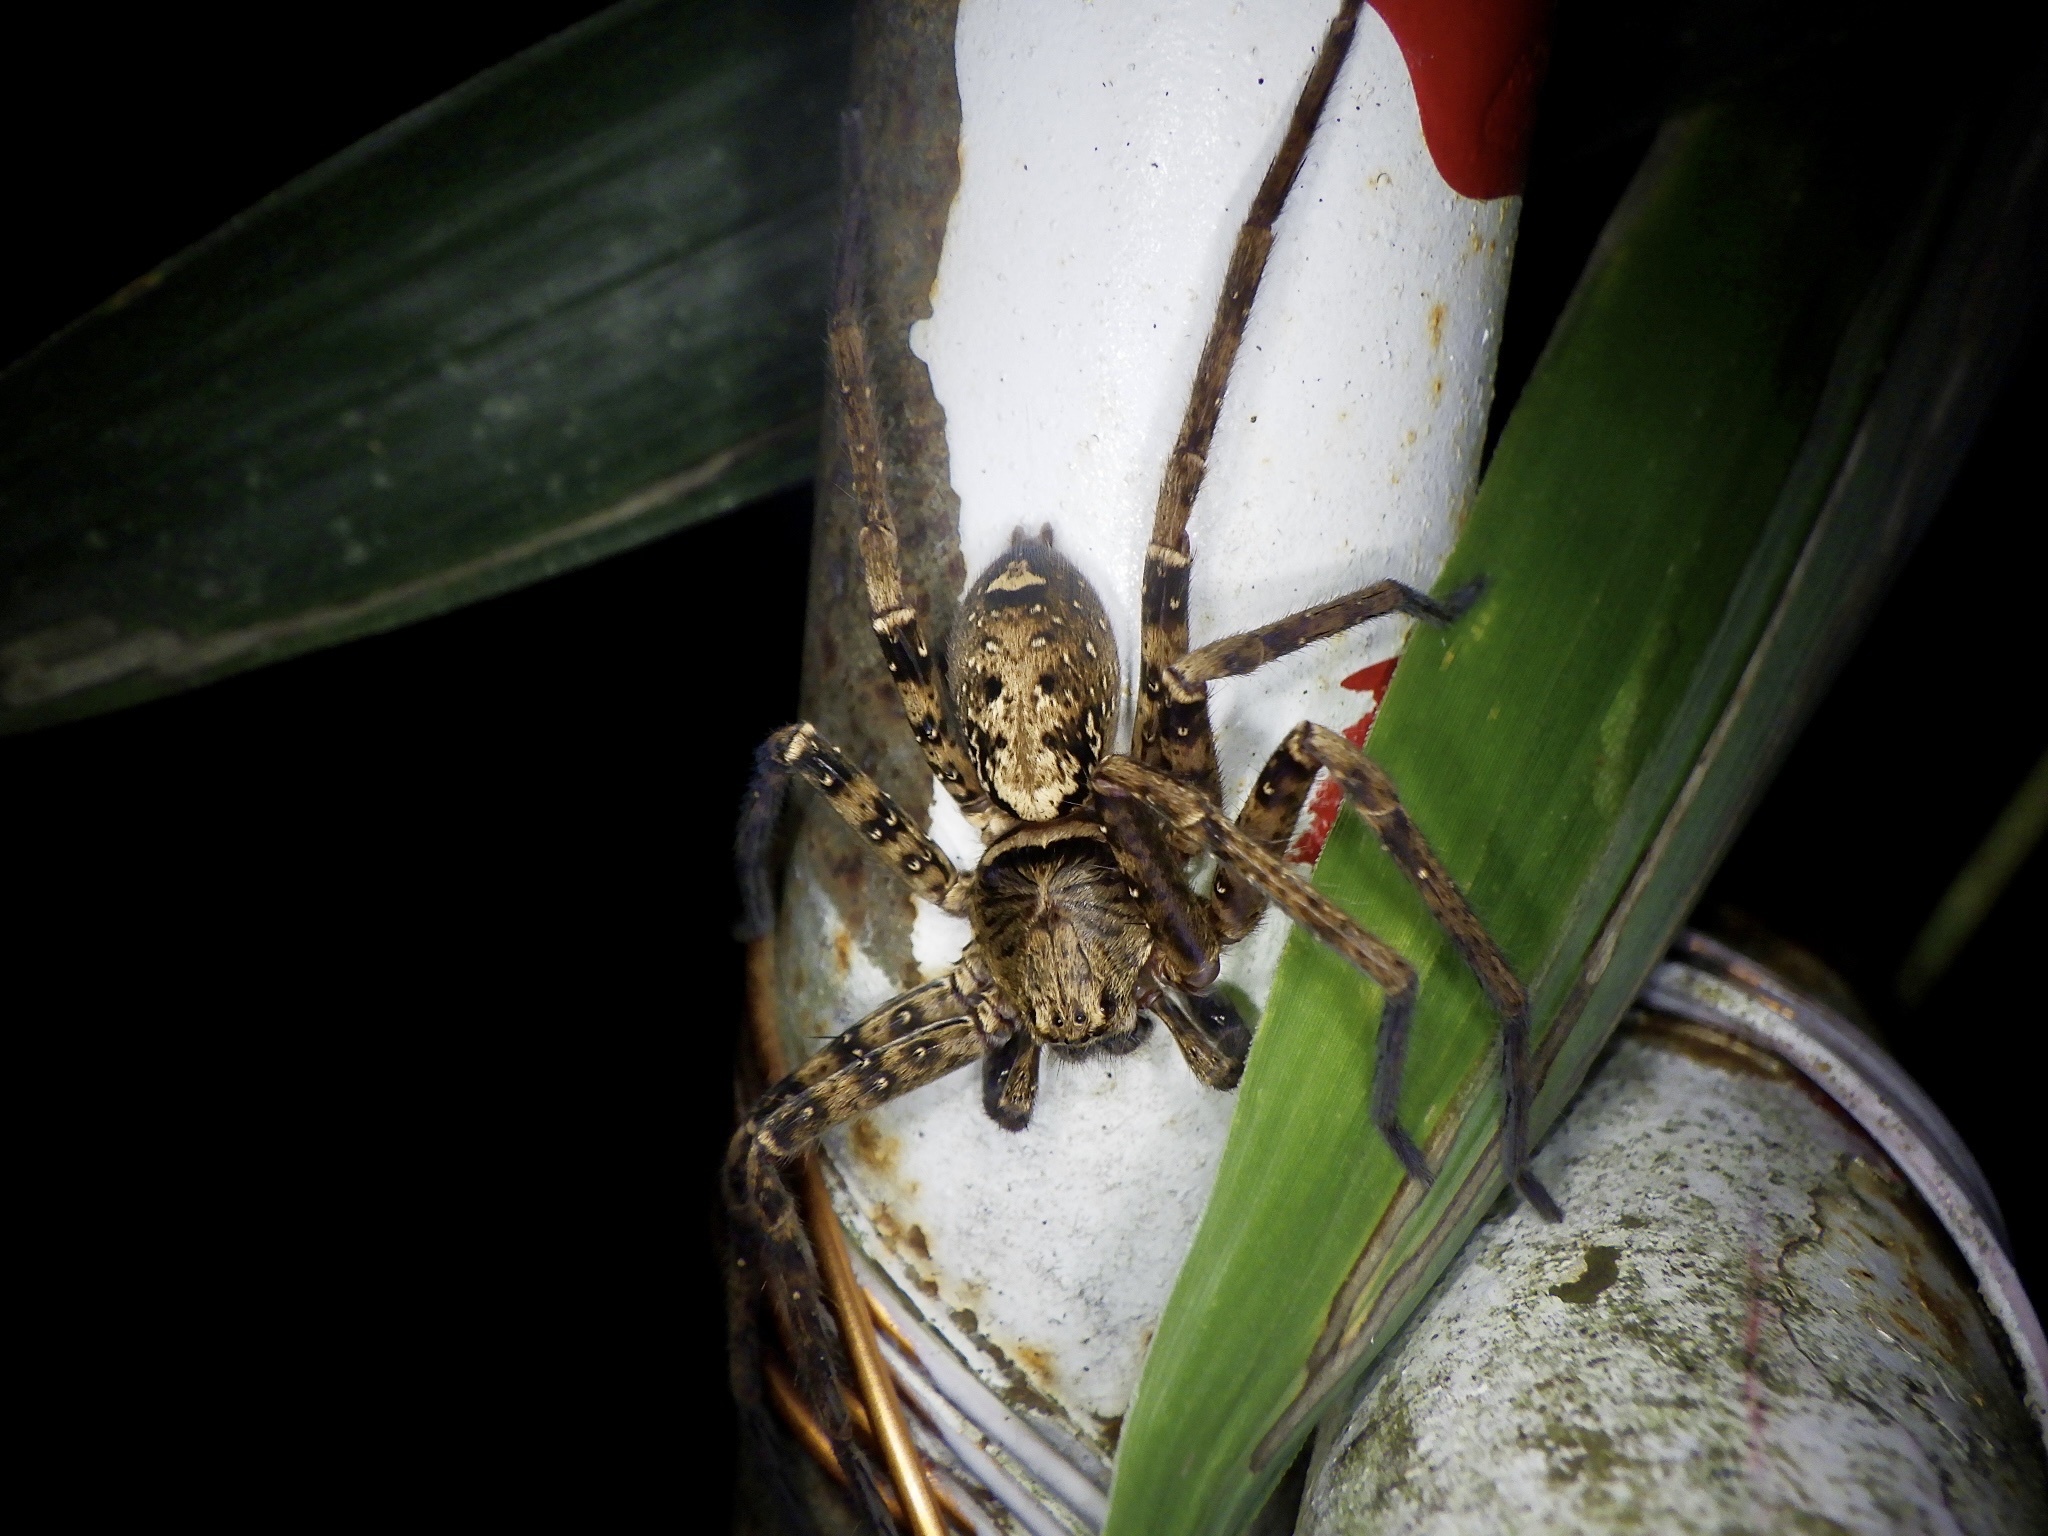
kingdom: Animalia
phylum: Arthropoda
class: Arachnida
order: Araneae
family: Sparassidae
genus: Sinopoda
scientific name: Sinopoda forcipata
